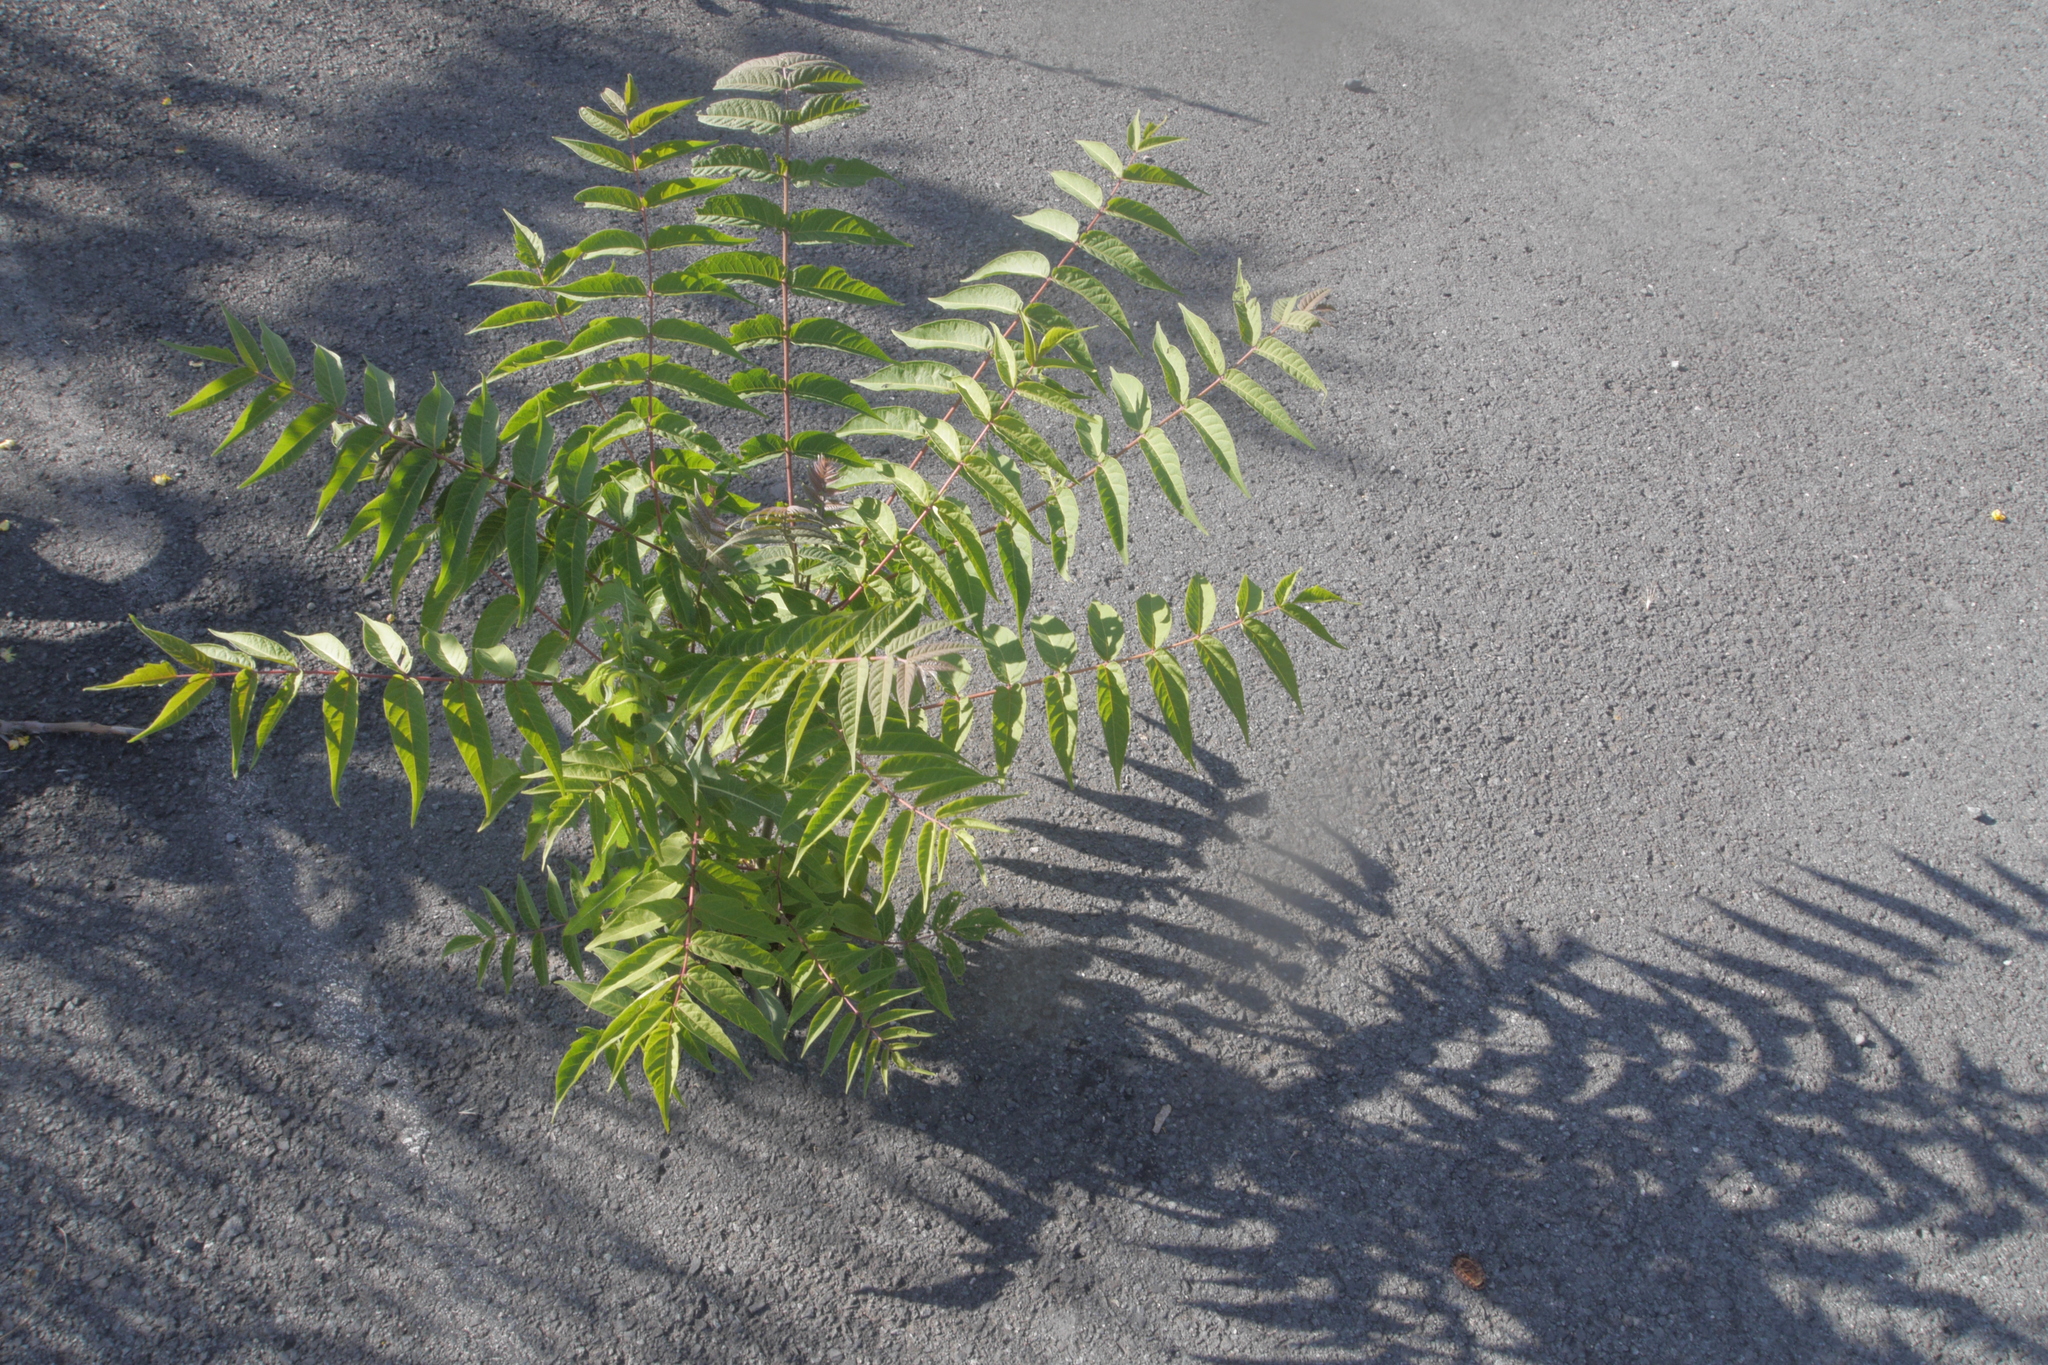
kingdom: Plantae
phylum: Tracheophyta
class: Magnoliopsida
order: Sapindales
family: Simaroubaceae
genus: Ailanthus
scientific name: Ailanthus altissima
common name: Tree-of-heaven
